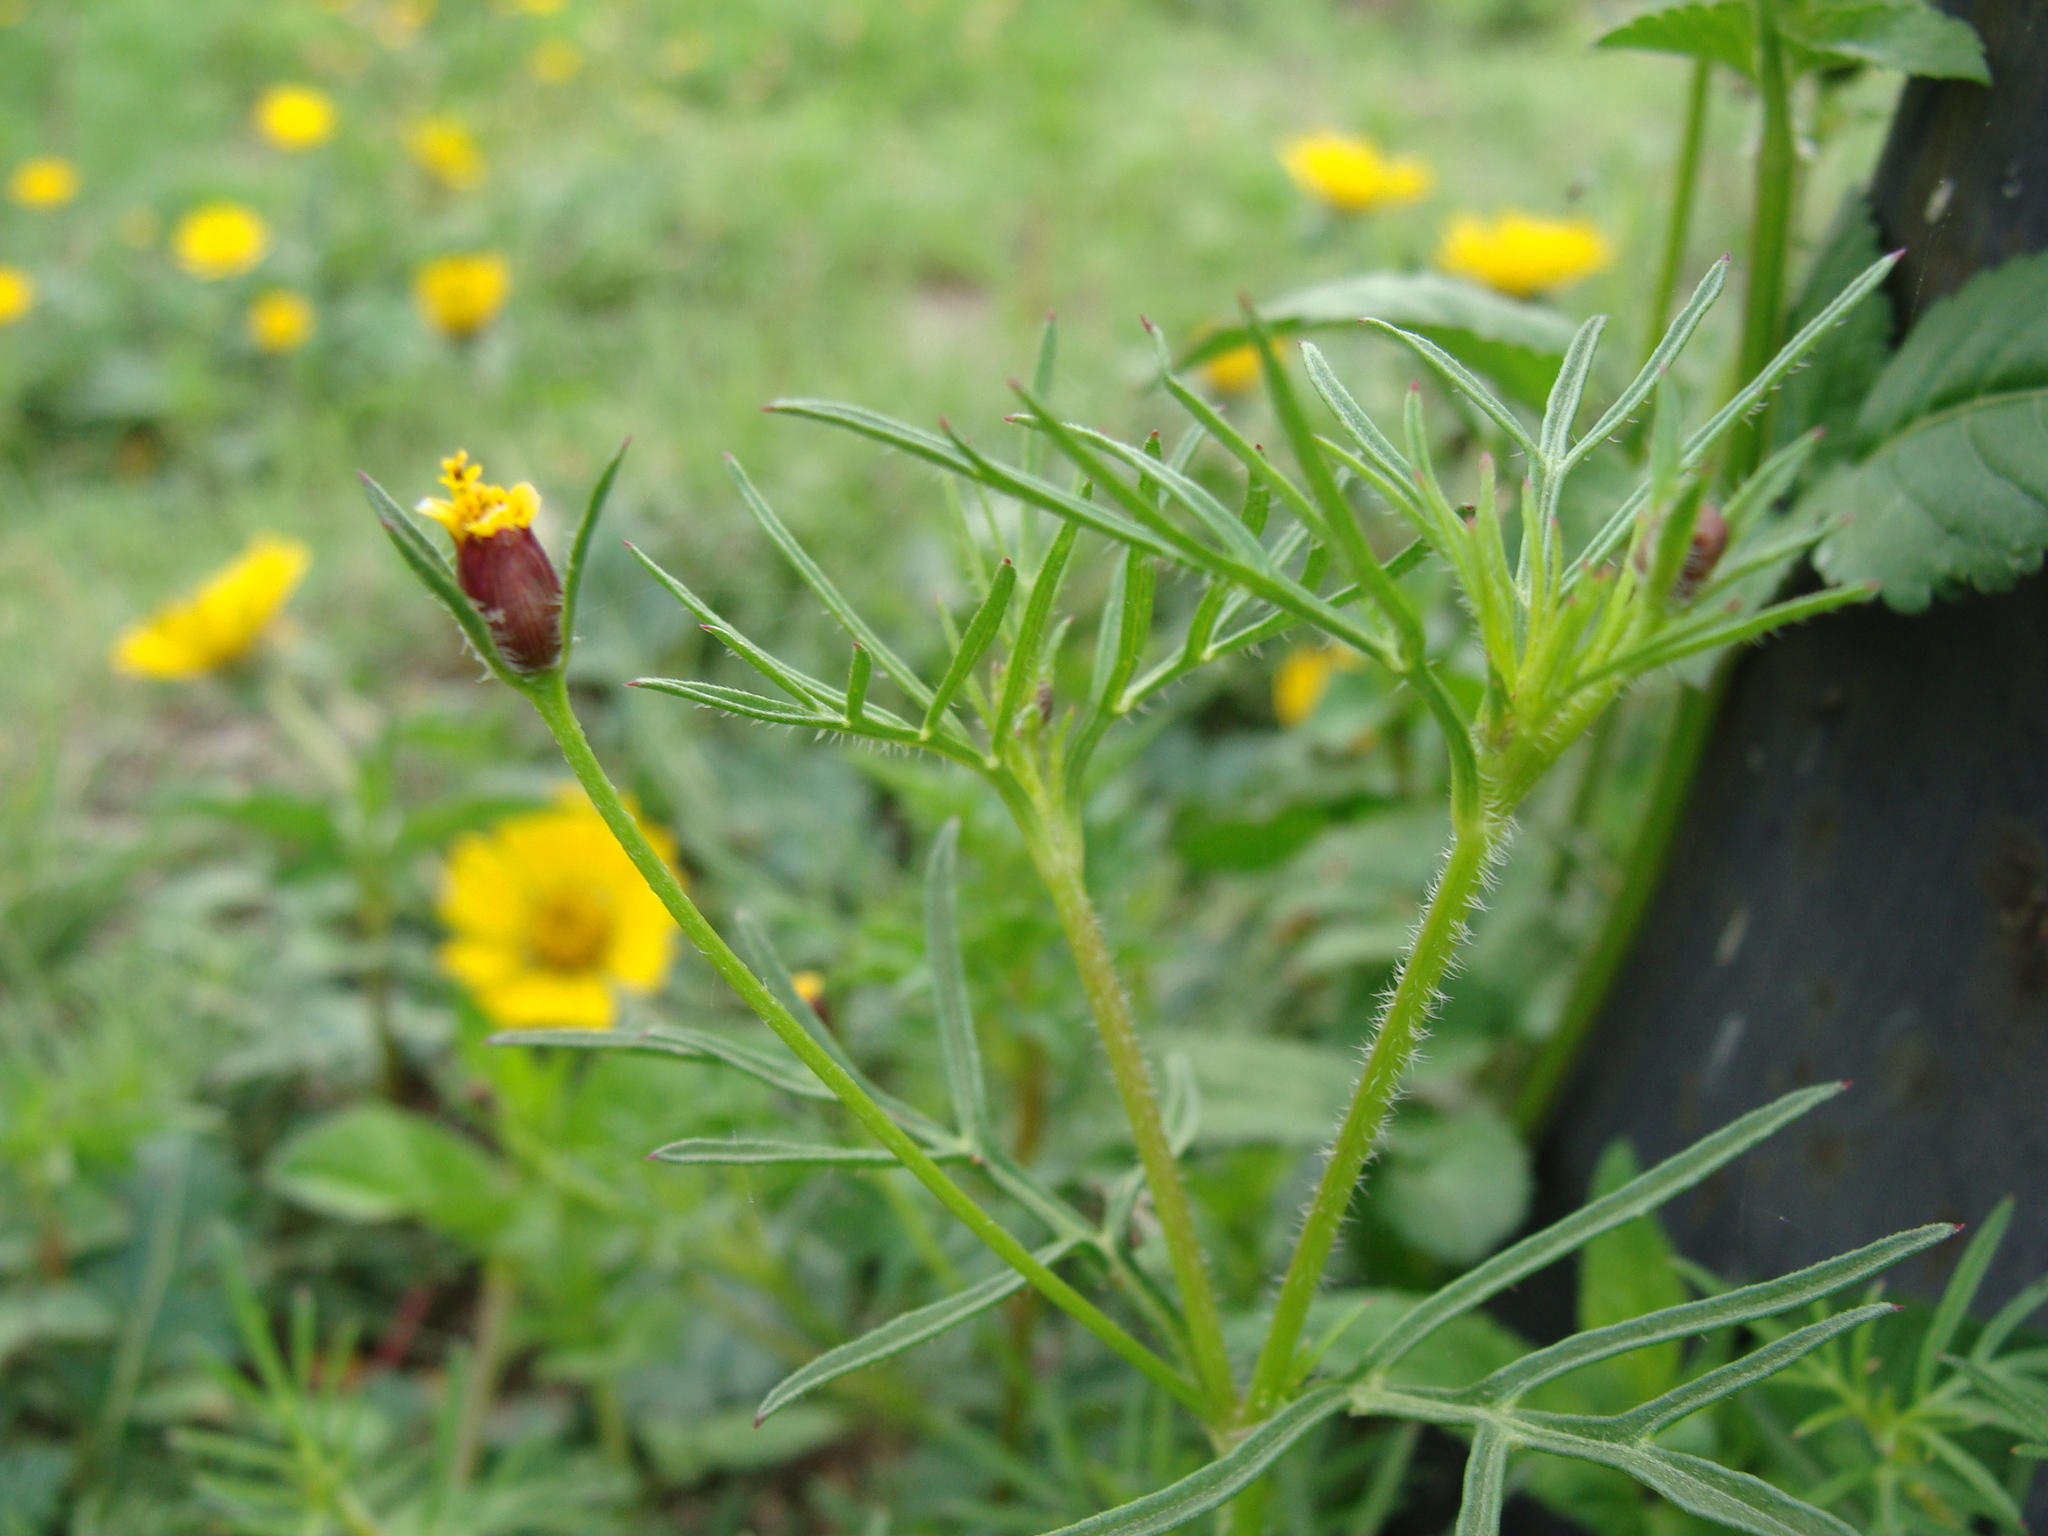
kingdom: Plantae
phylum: Tracheophyta
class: Magnoliopsida
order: Asterales
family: Asteraceae
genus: Heterosperma
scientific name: Heterosperma pinnatum
